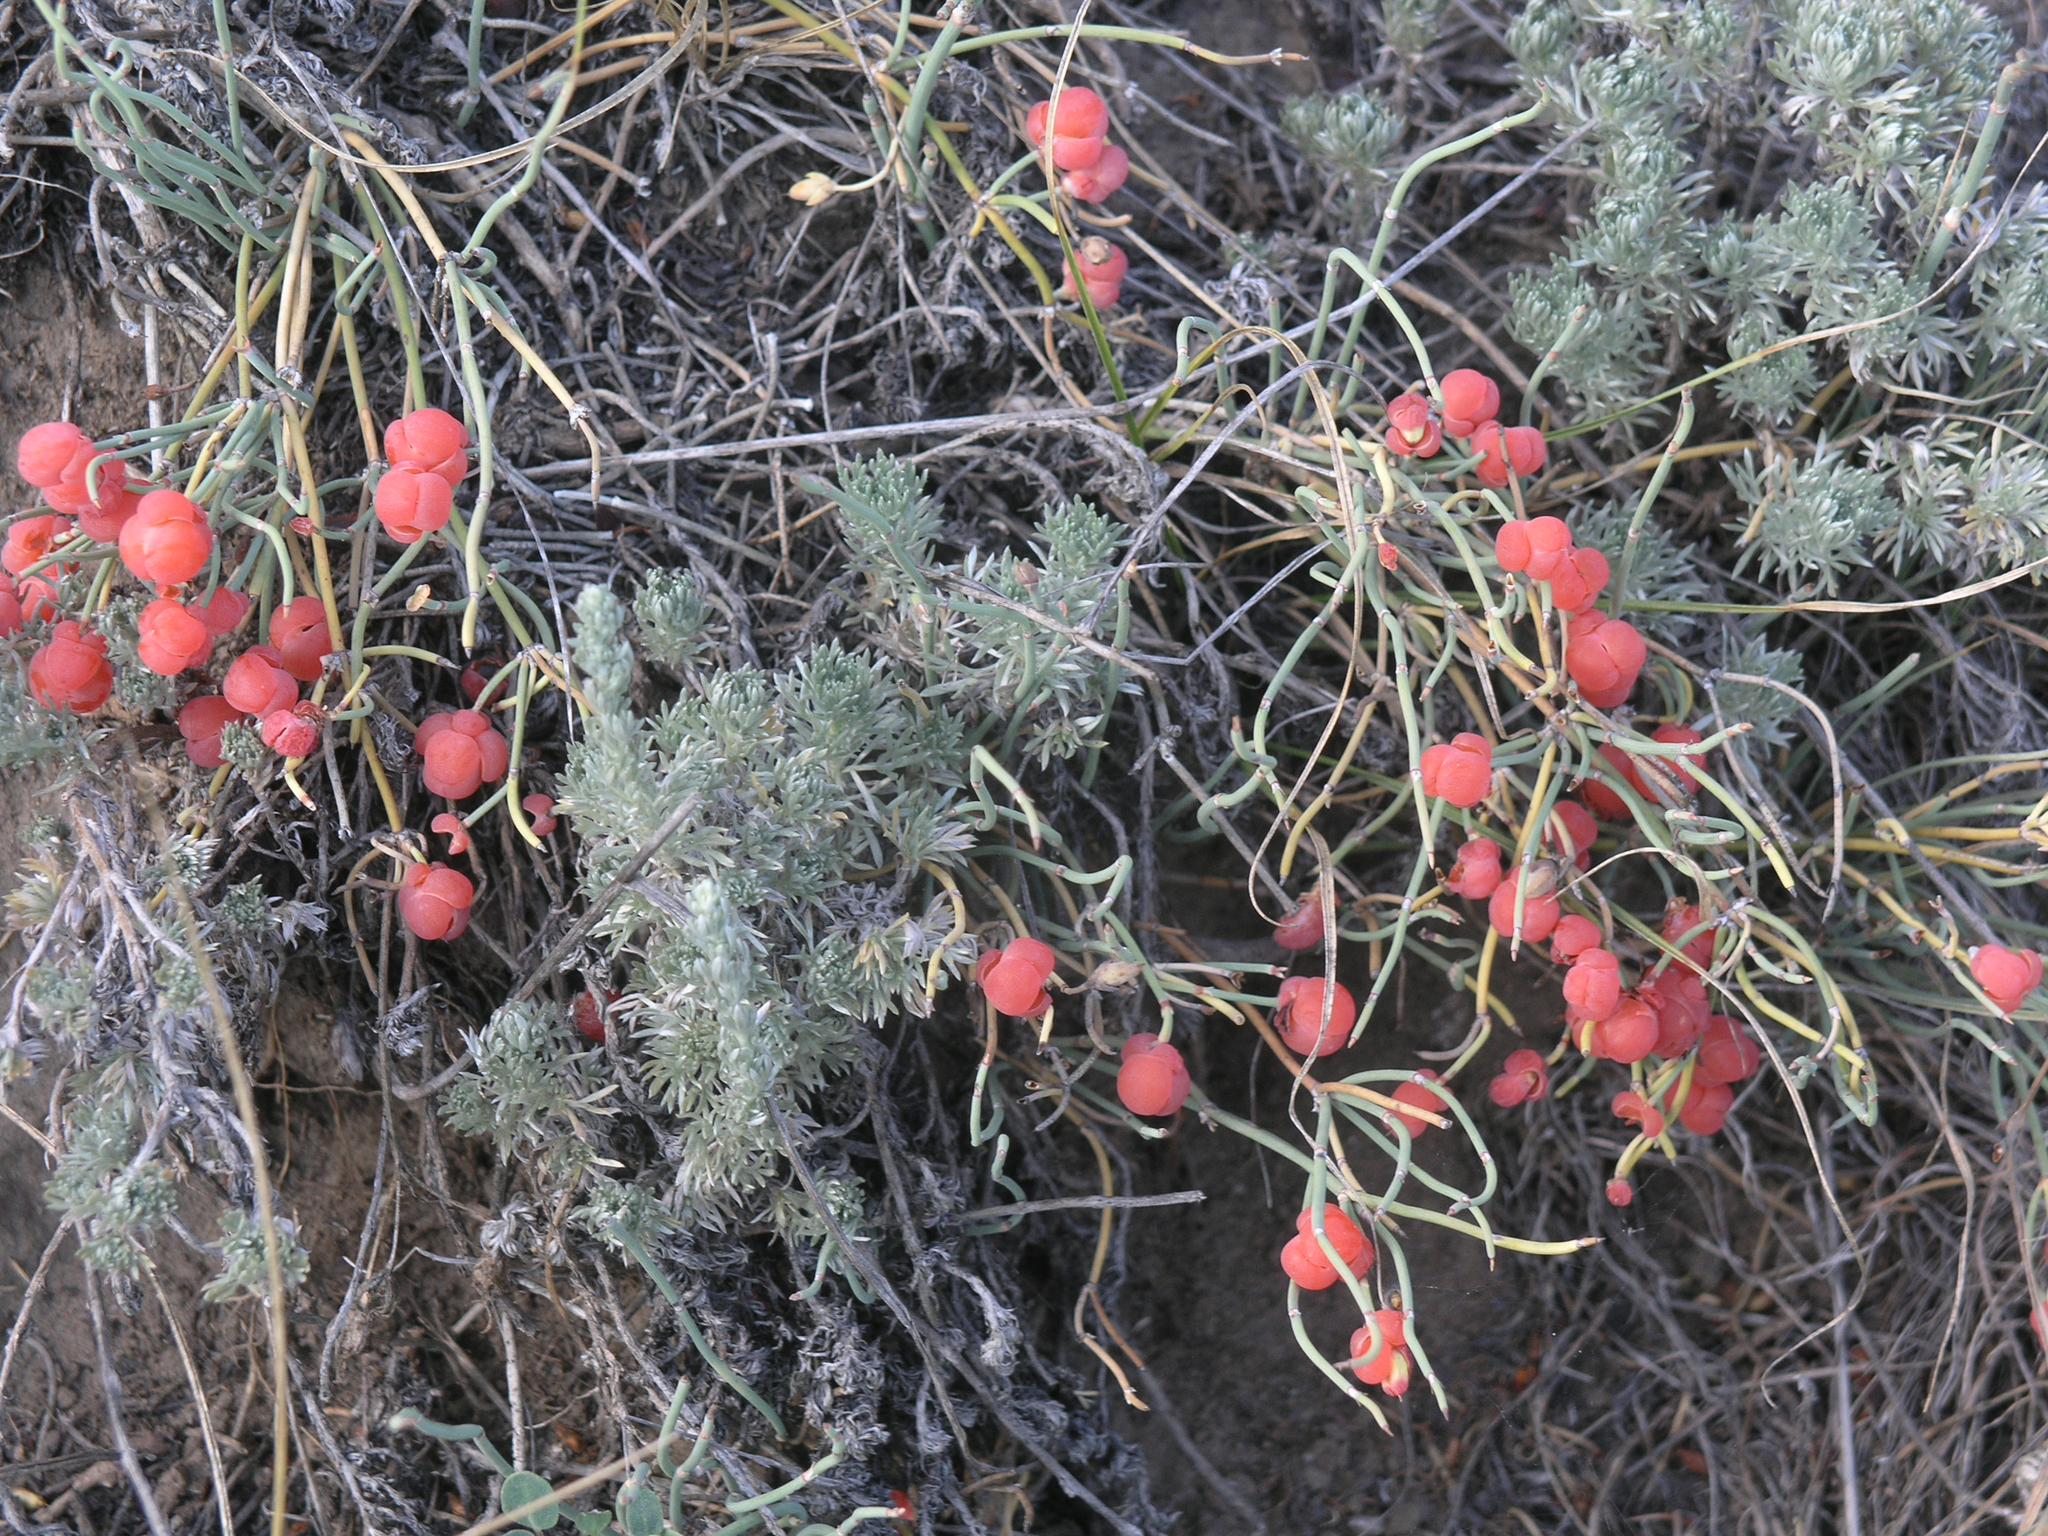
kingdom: Plantae
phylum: Tracheophyta
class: Magnoliopsida
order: Asterales
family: Asteraceae
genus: Artemisia
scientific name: Artemisia frigida
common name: Prairie sagewort
